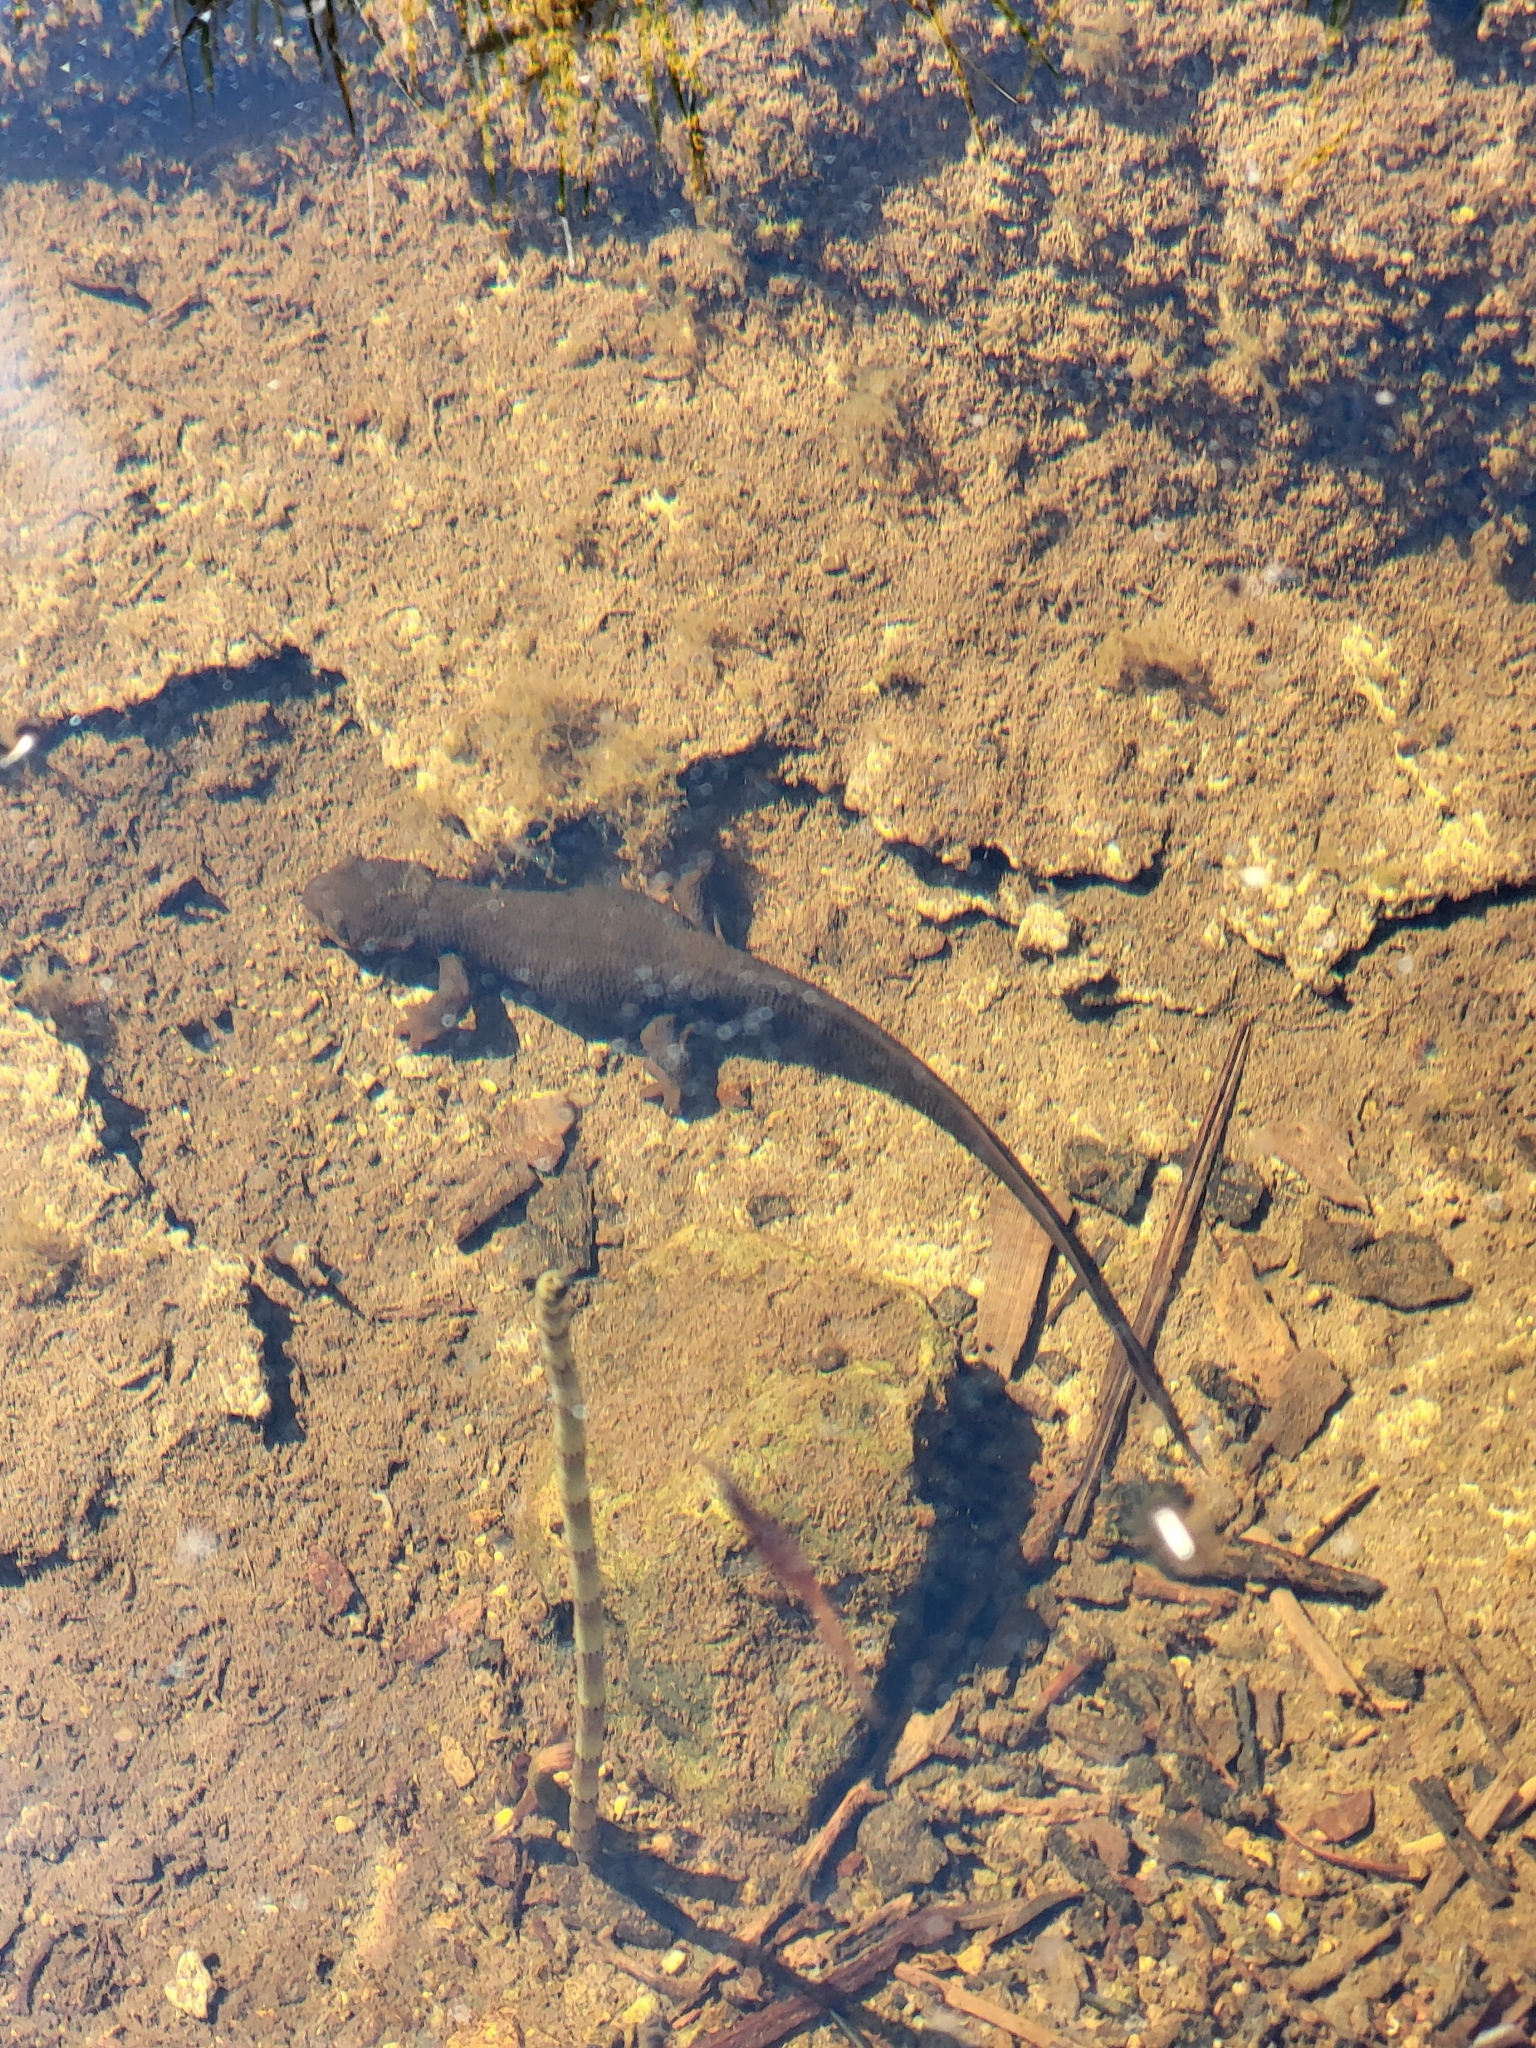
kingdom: Animalia
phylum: Chordata
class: Amphibia
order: Caudata
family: Salamandridae
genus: Taricha
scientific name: Taricha granulosa
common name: Roughskin newt
